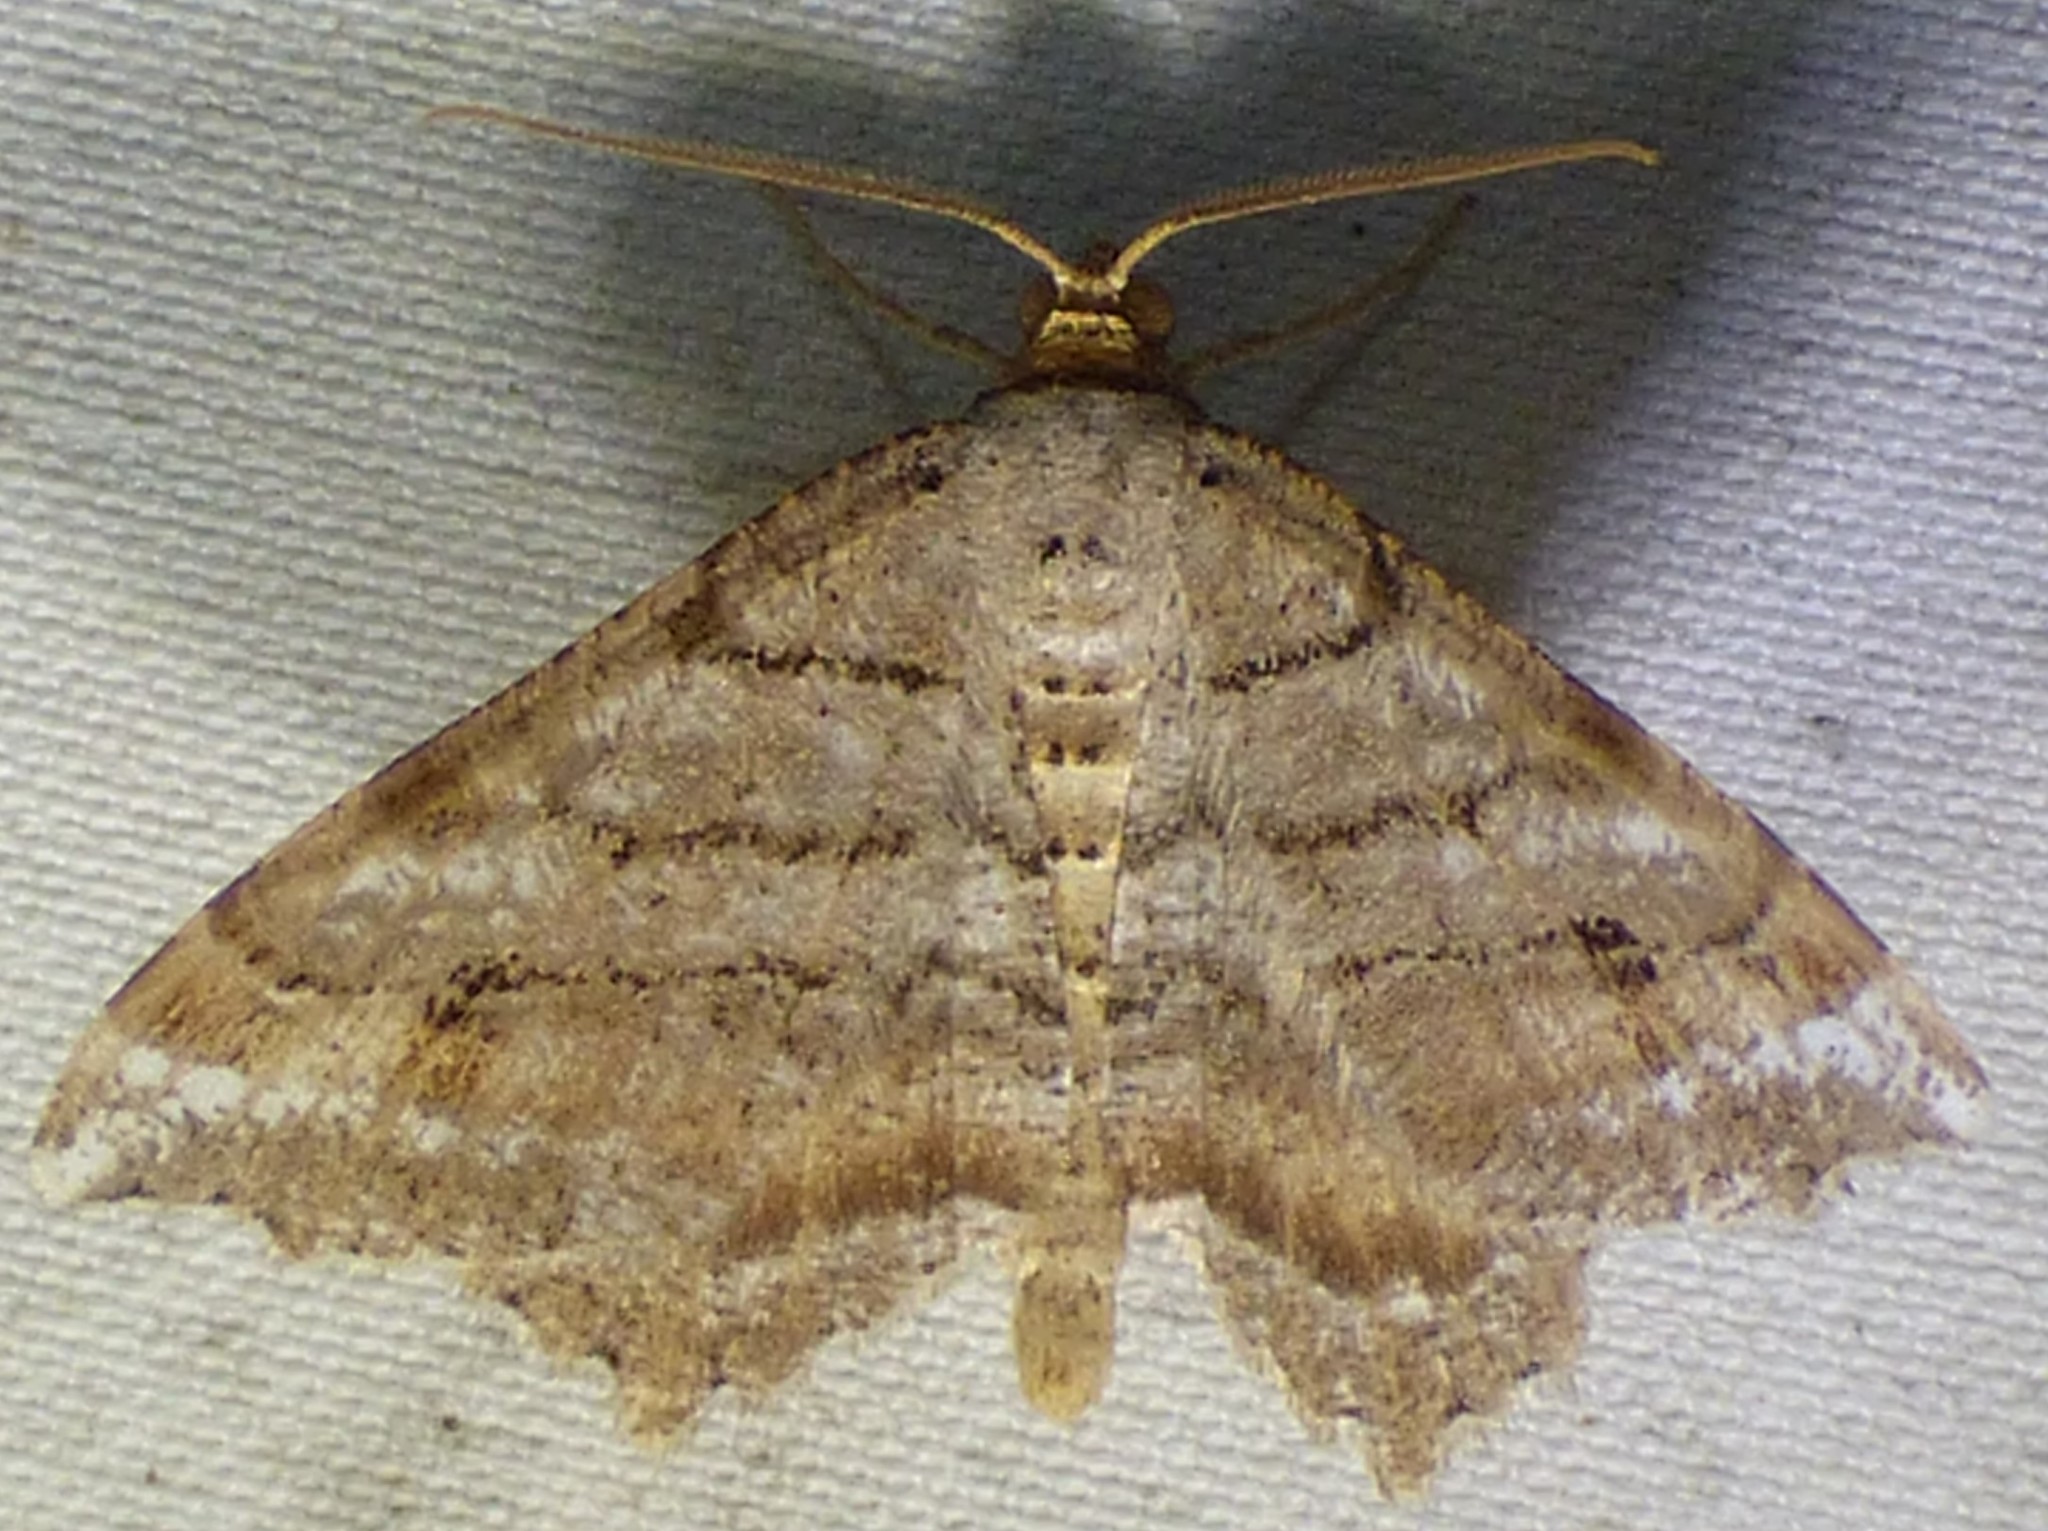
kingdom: Animalia
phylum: Arthropoda
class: Insecta
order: Lepidoptera
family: Geometridae
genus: Macaria
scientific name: Macaria multilineata
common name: Many-lined angle
